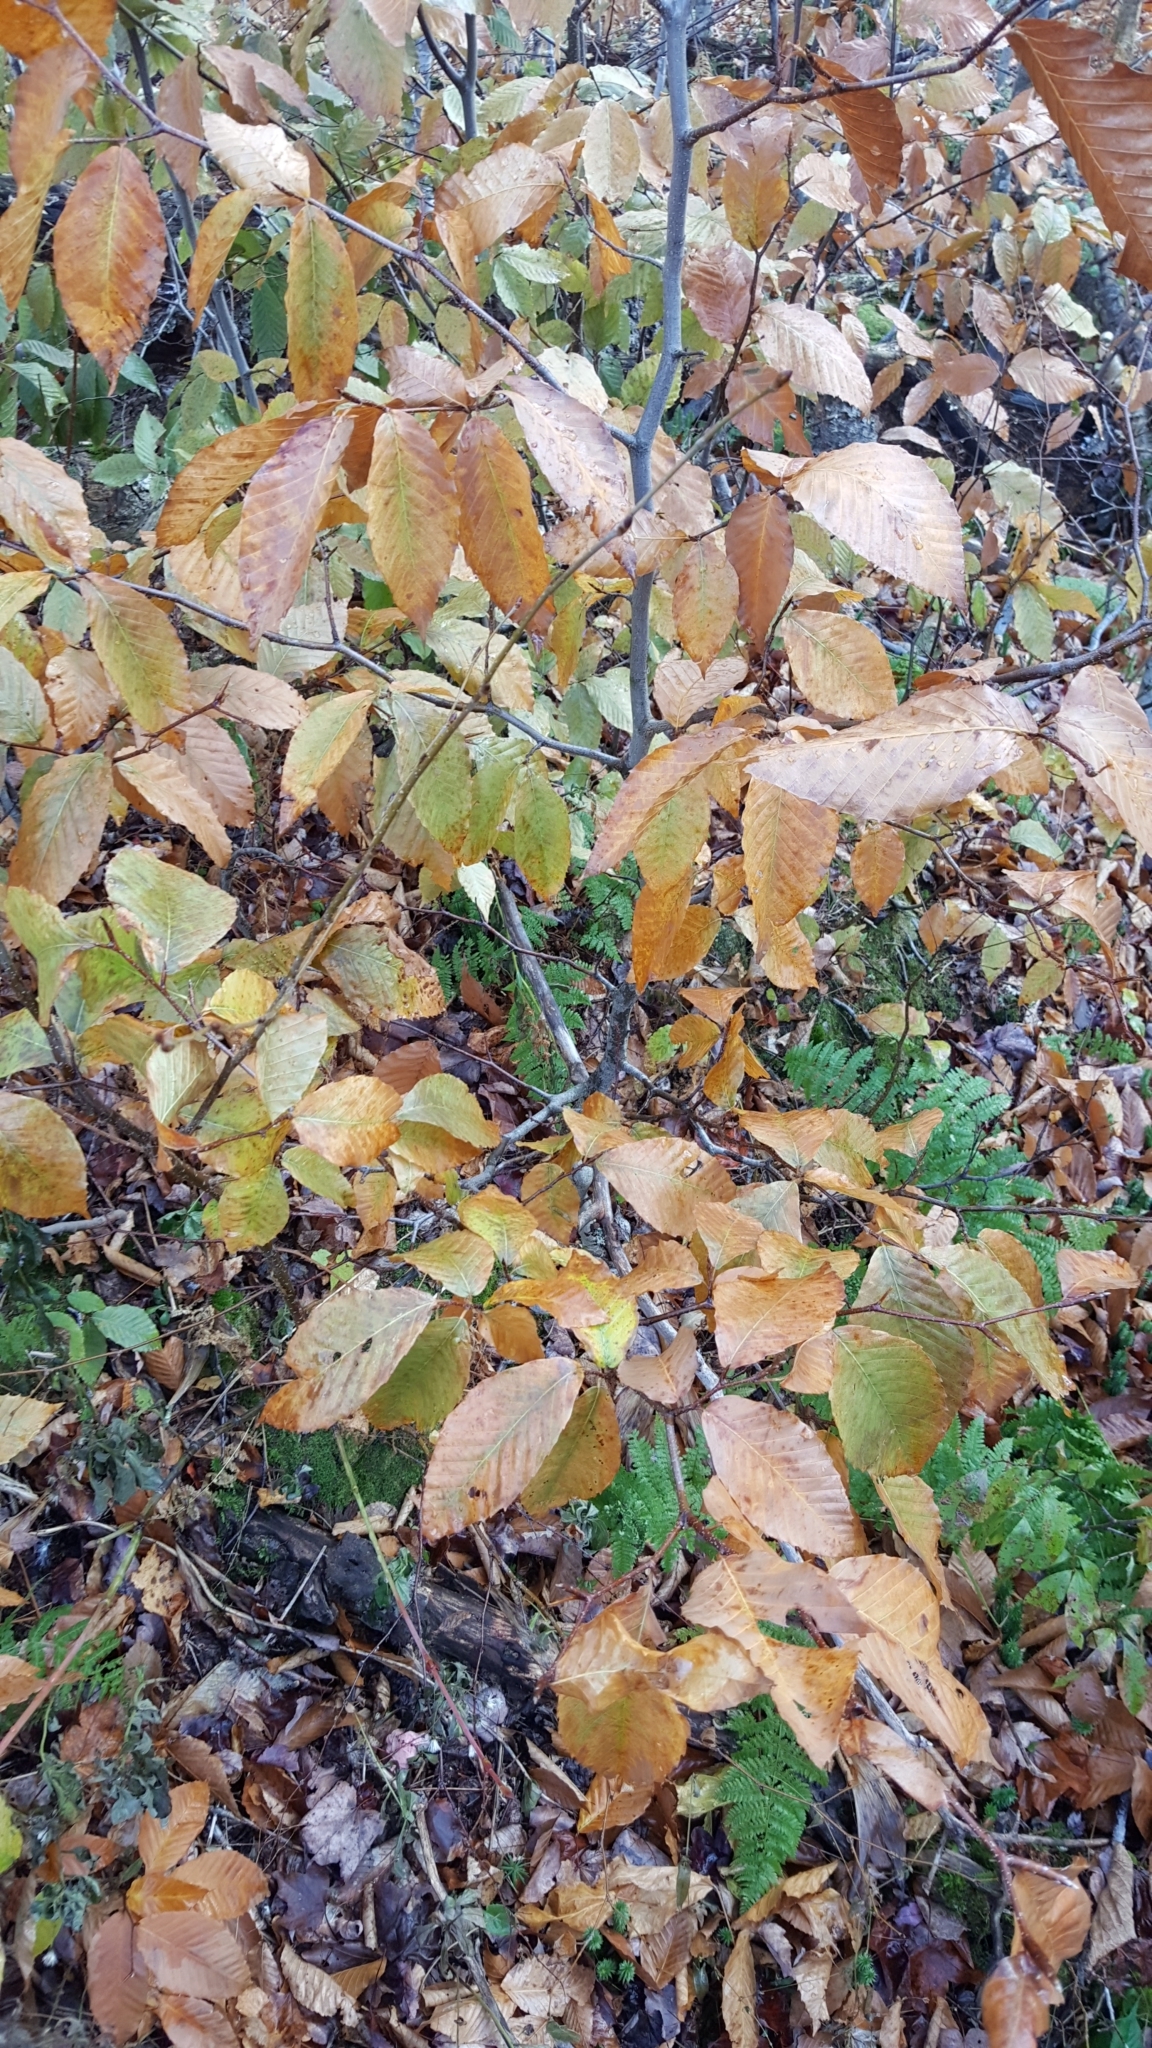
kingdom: Plantae
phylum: Tracheophyta
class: Magnoliopsida
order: Fagales
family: Fagaceae
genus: Fagus
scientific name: Fagus grandifolia
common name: American beech
